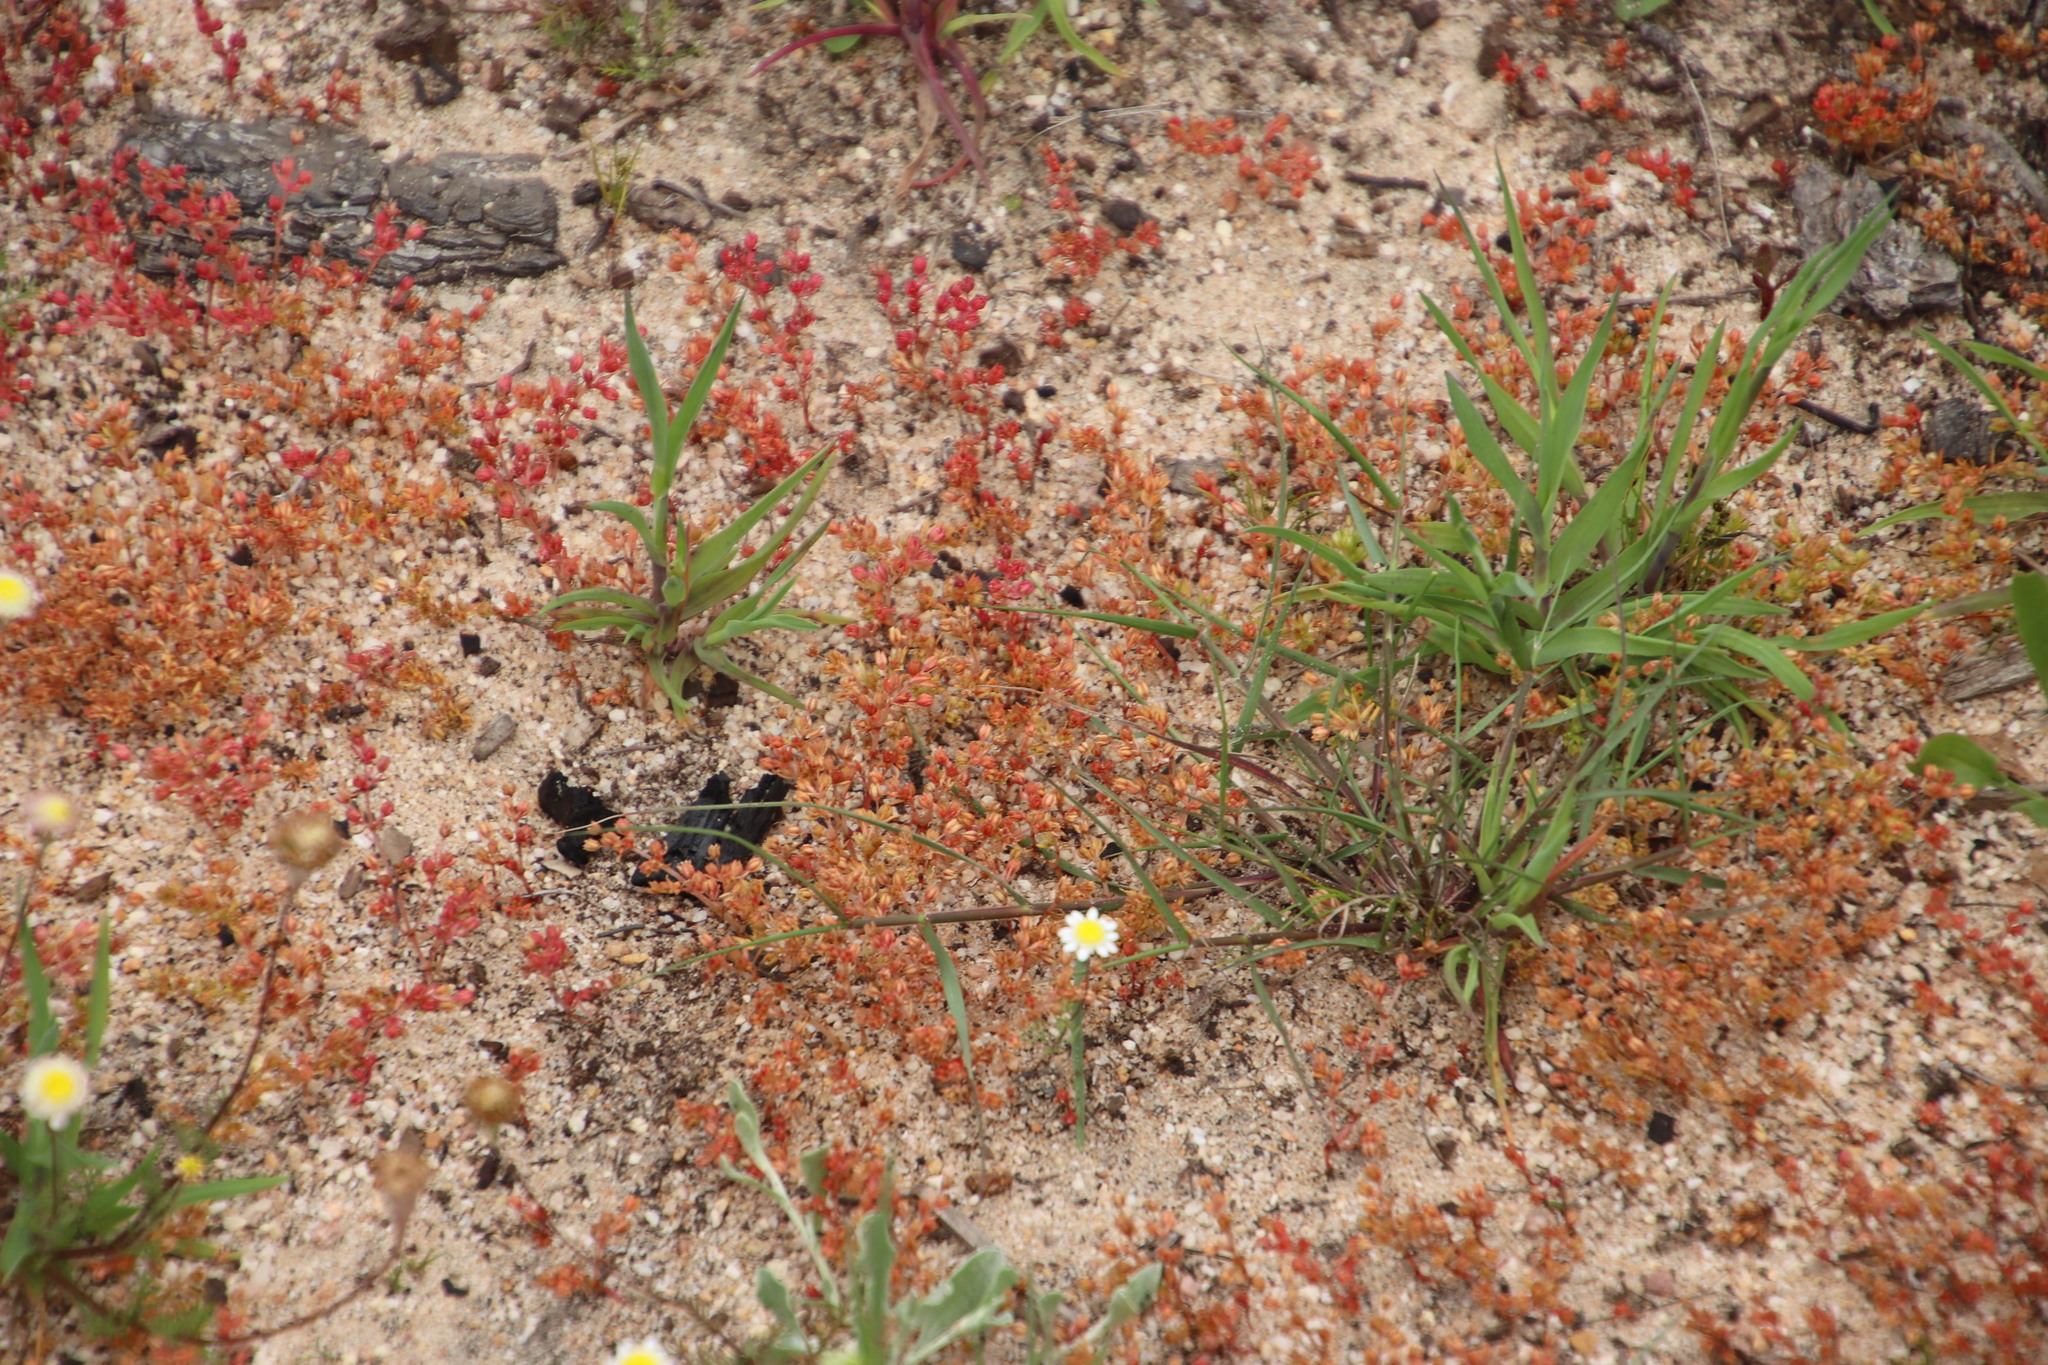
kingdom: Plantae
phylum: Tracheophyta
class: Magnoliopsida
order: Saxifragales
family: Crassulaceae
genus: Crassula
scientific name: Crassula decumbens
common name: Scilly pigmyweed
